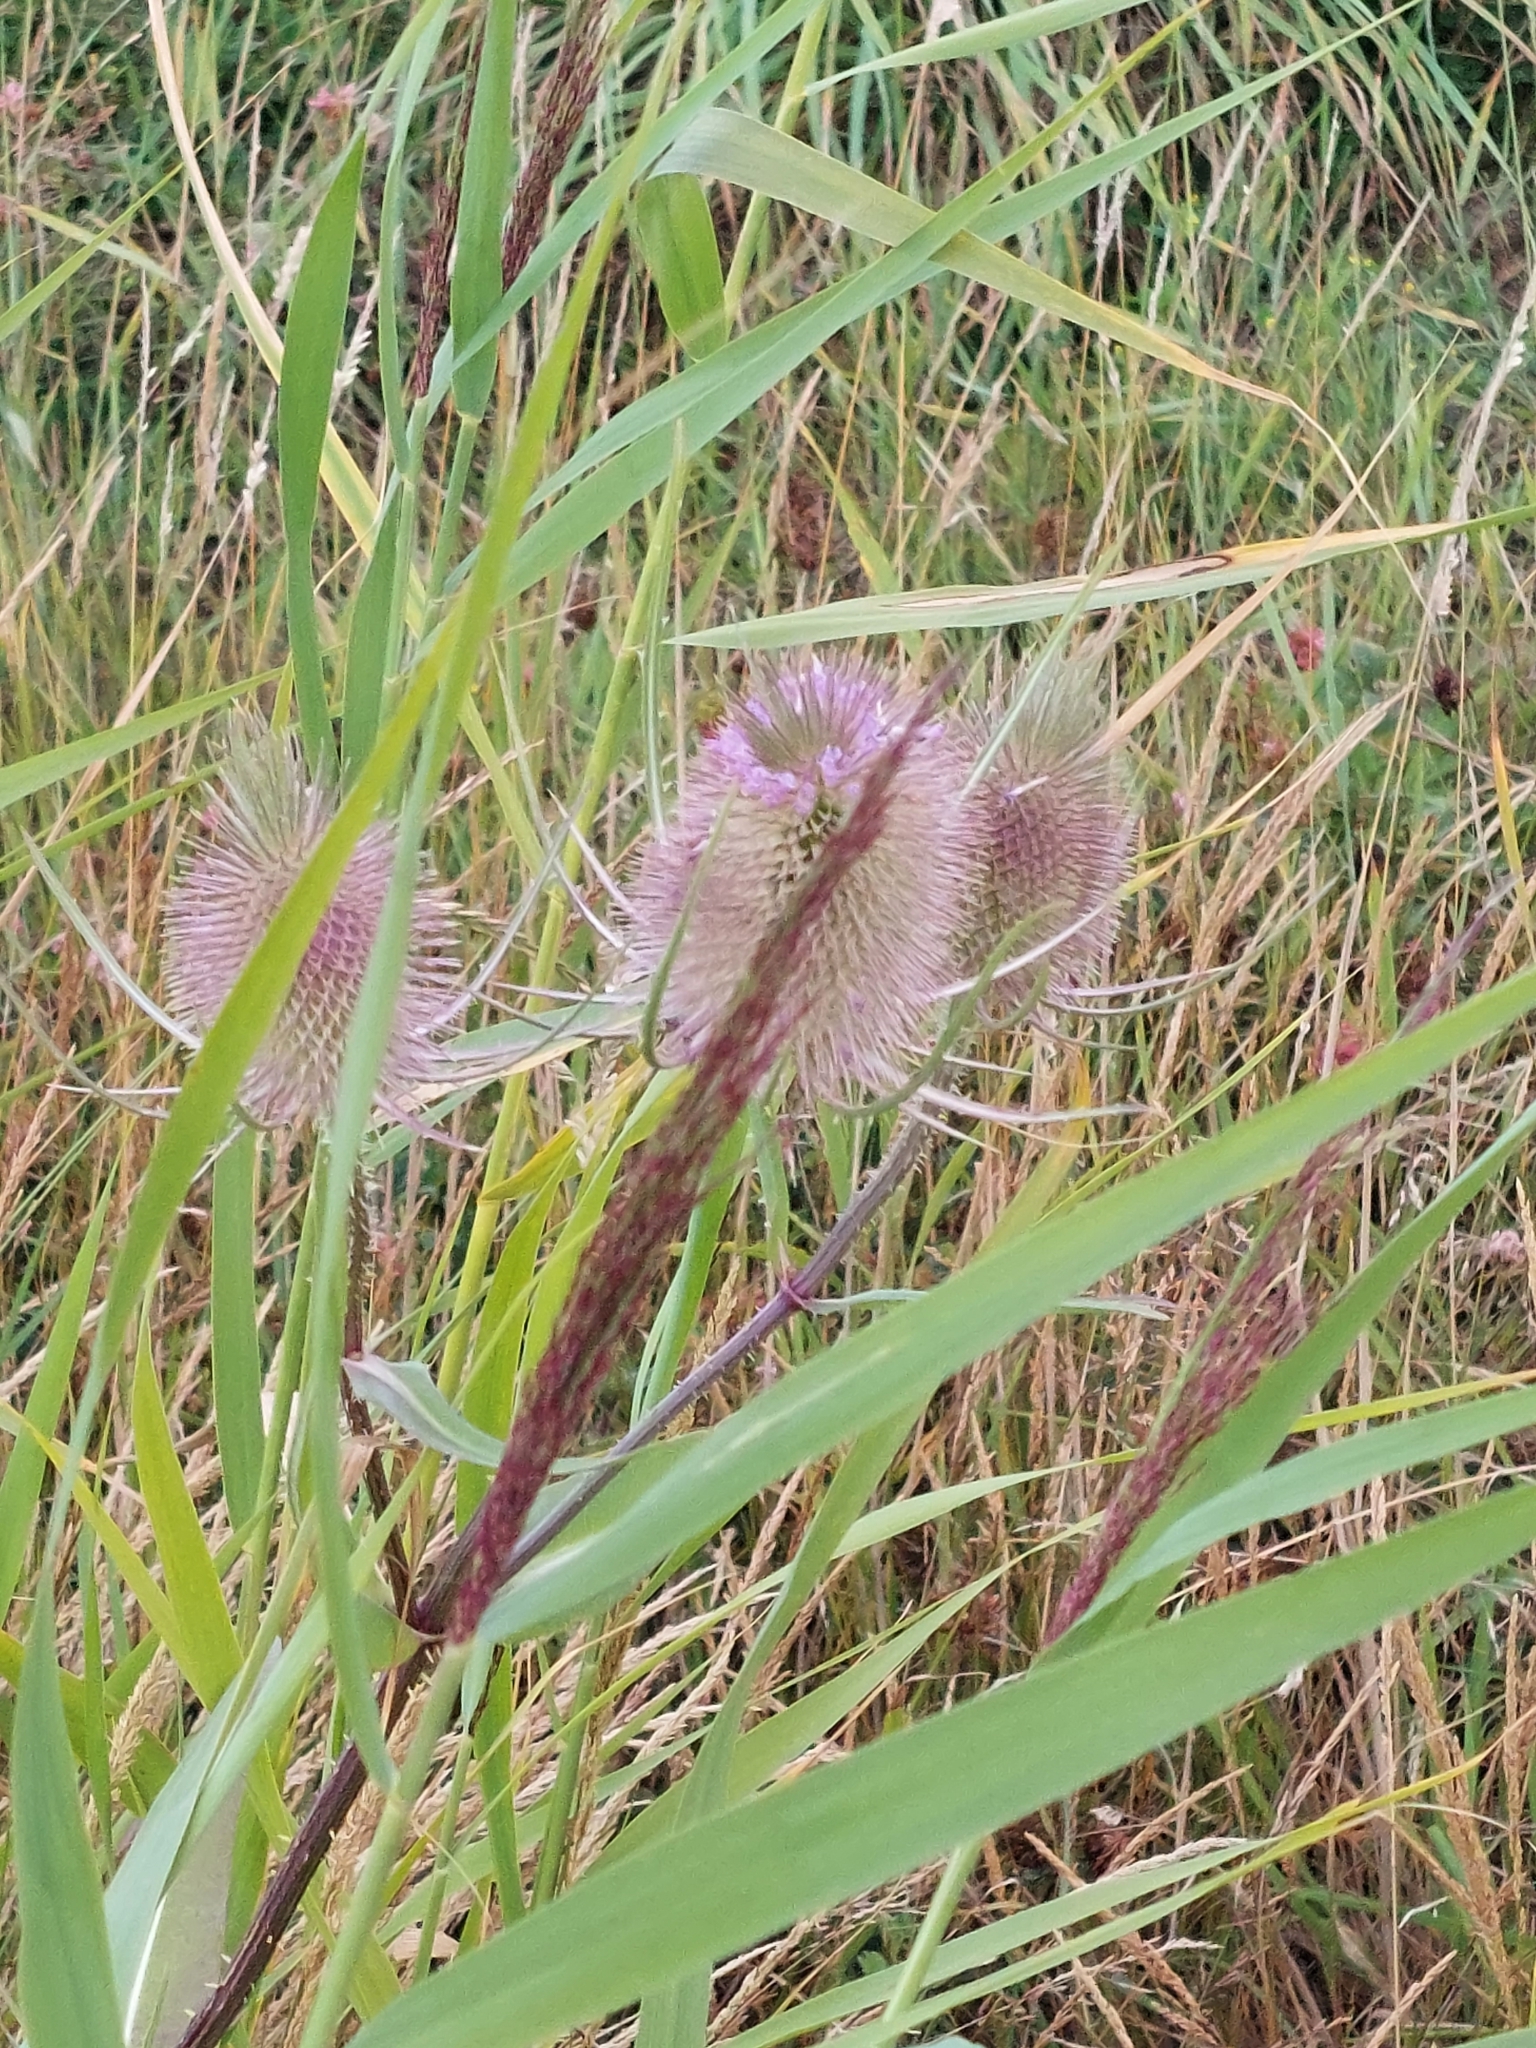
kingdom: Plantae
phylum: Tracheophyta
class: Magnoliopsida
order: Dipsacales
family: Caprifoliaceae
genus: Dipsacus
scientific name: Dipsacus fullonum
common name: Teasel
